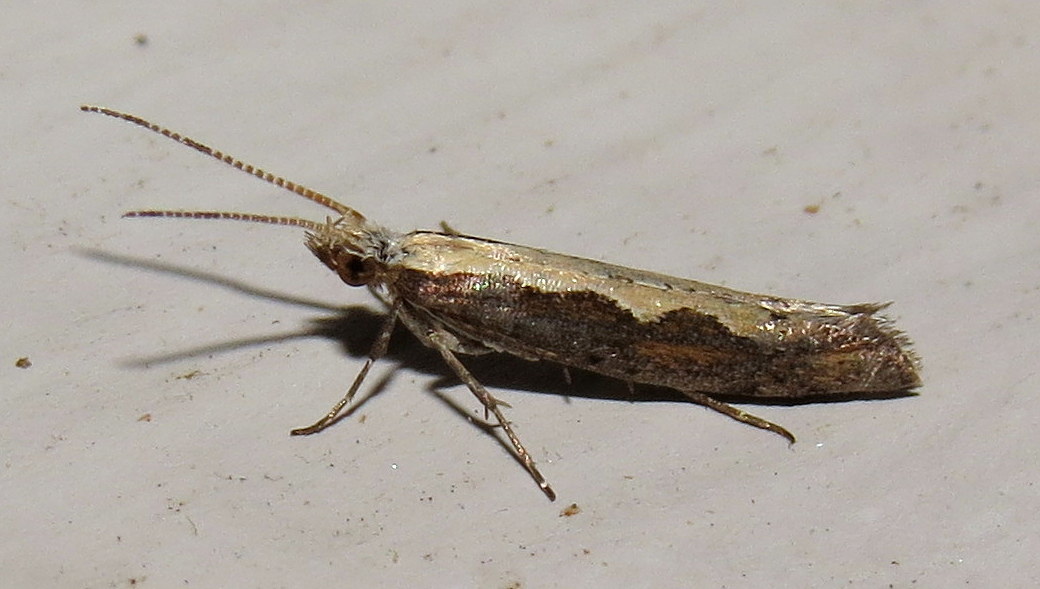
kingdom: Animalia
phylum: Arthropoda
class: Insecta
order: Lepidoptera
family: Plutellidae
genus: Plutella
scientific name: Plutella xylostella
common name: Diamond-back moth
